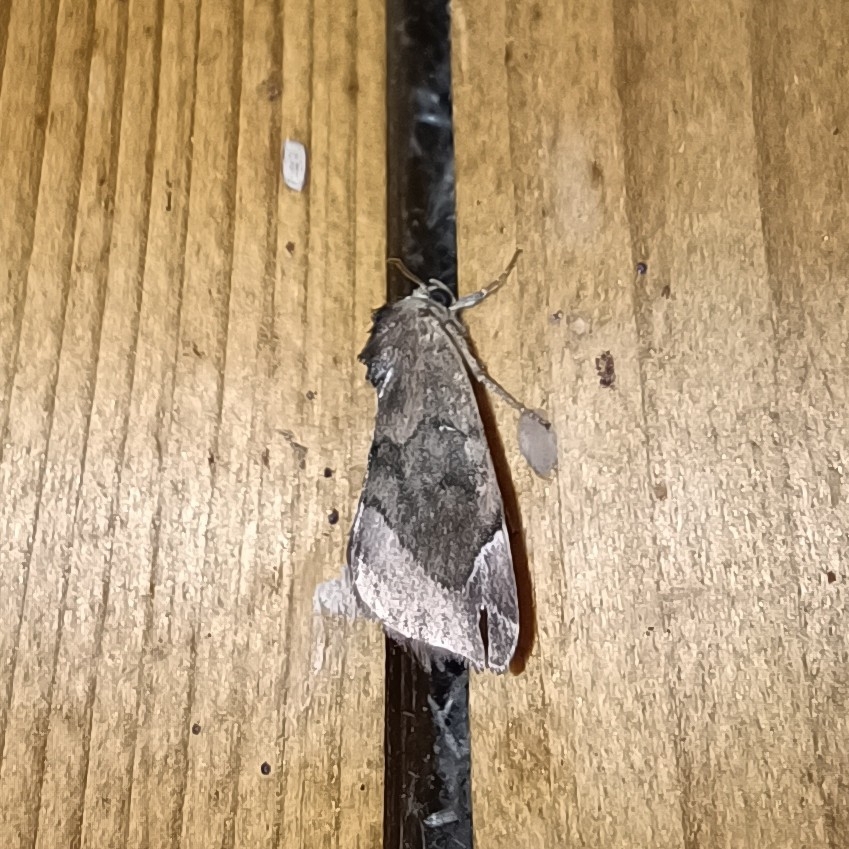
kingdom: Animalia
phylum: Arthropoda
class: Insecta
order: Lepidoptera
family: Noctuidae
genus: Cosmia
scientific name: Cosmia pyralina
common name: Lunar-spotted pinion
